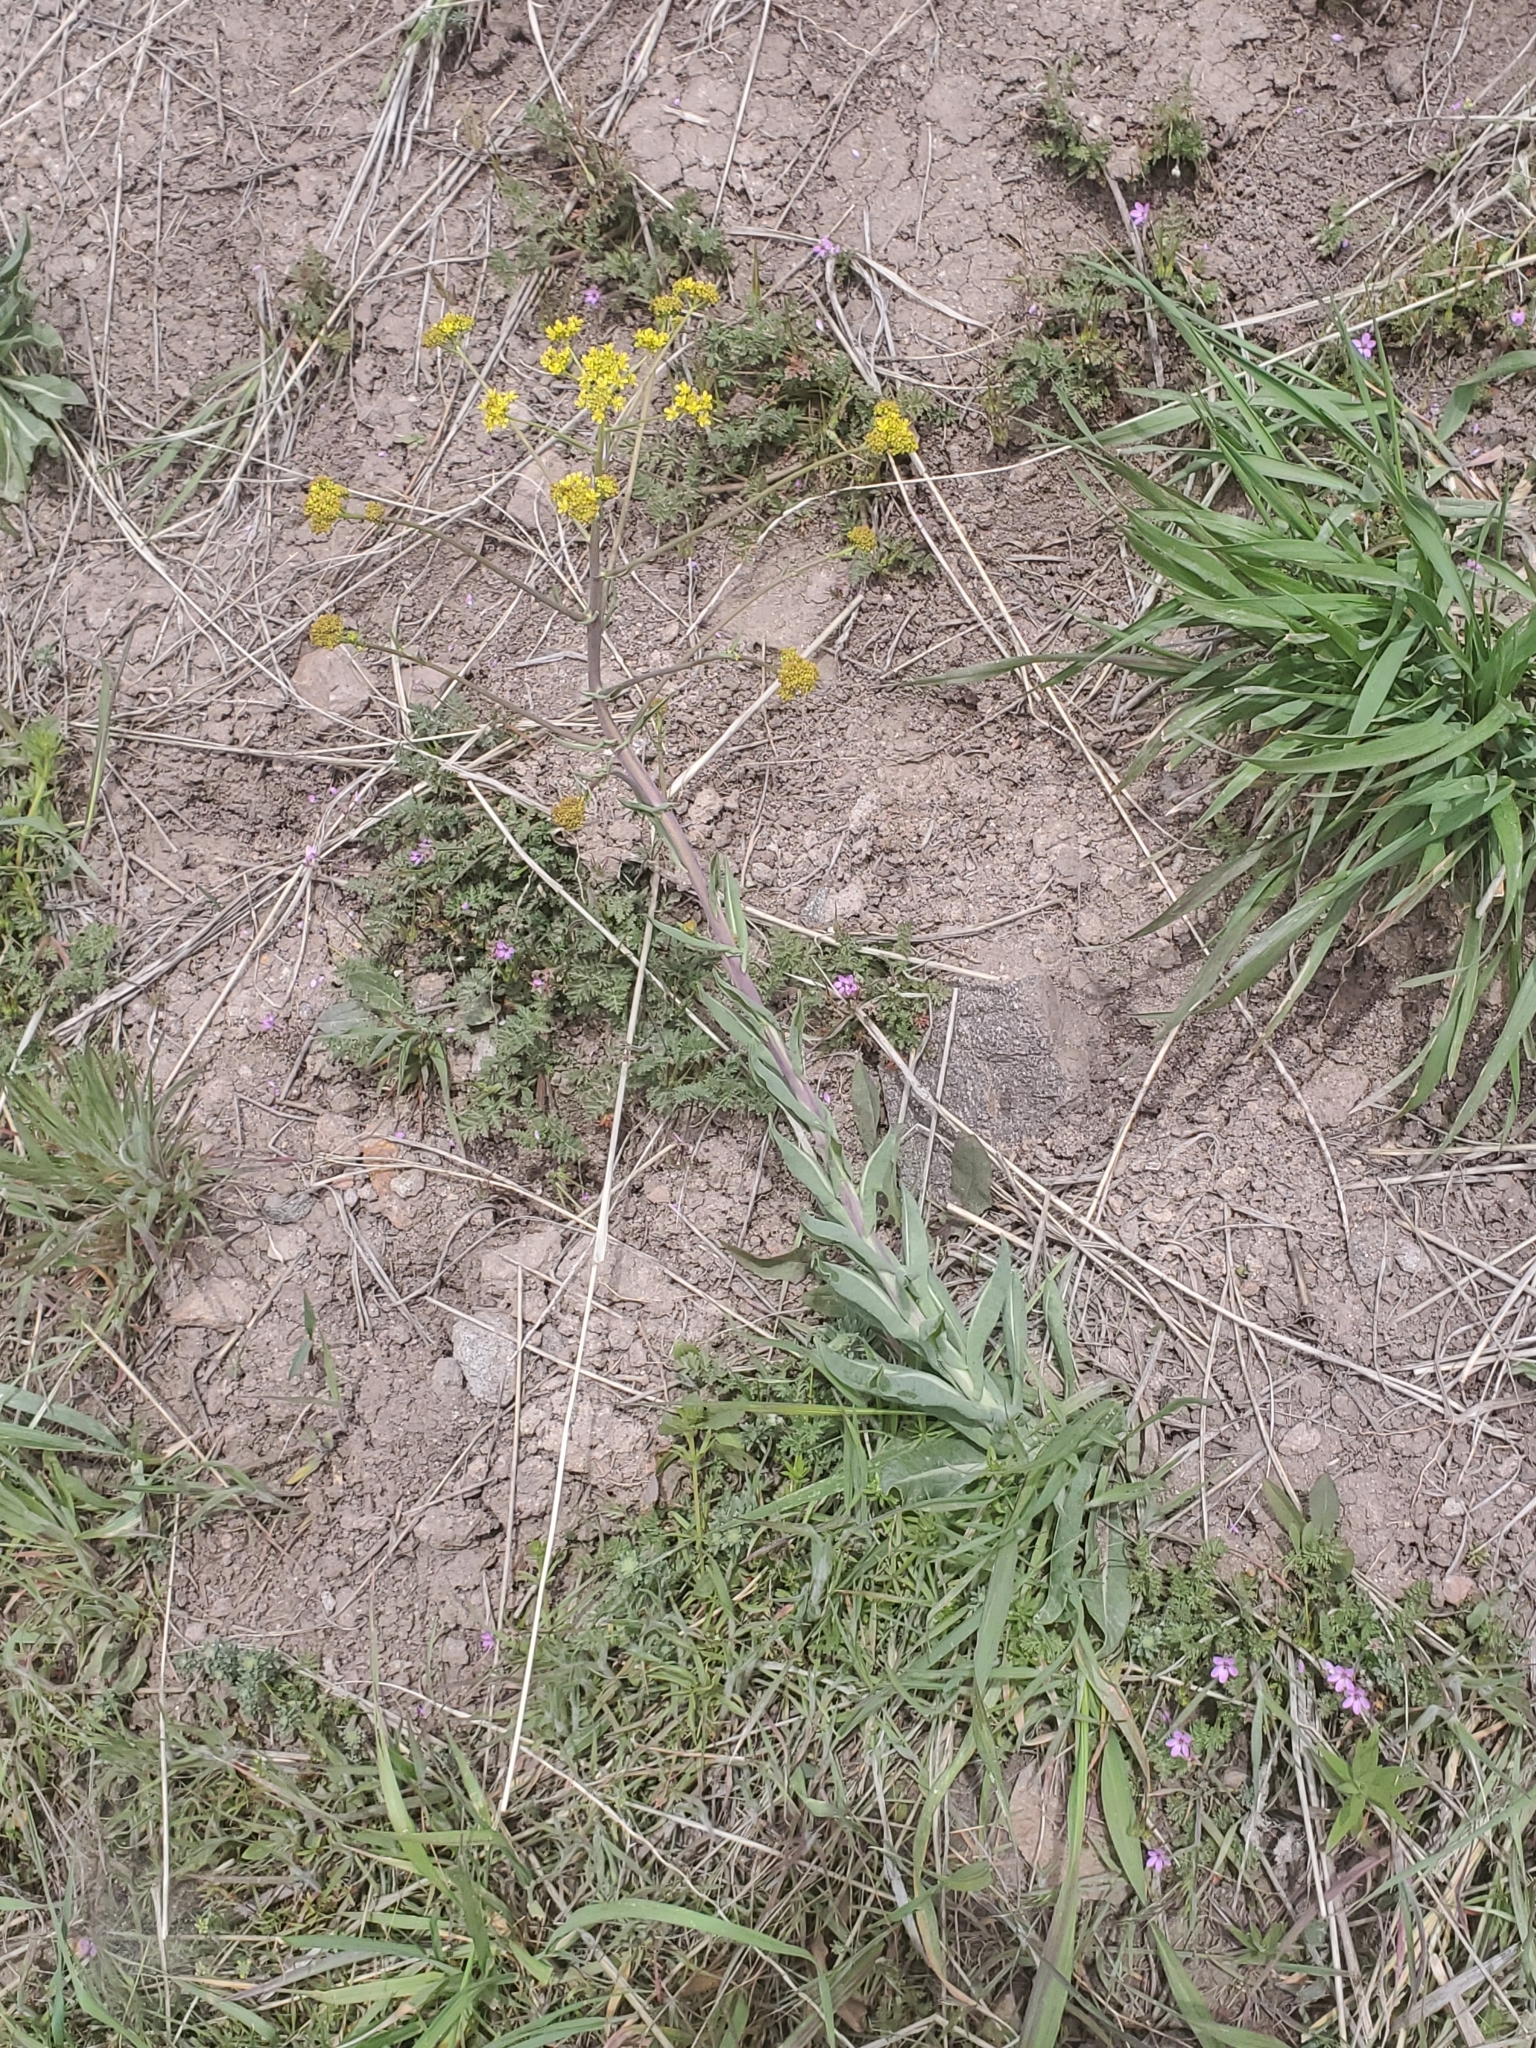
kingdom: Plantae
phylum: Tracheophyta
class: Magnoliopsida
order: Brassicales
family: Brassicaceae
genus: Isatis
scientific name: Isatis tinctoria
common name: Woad
